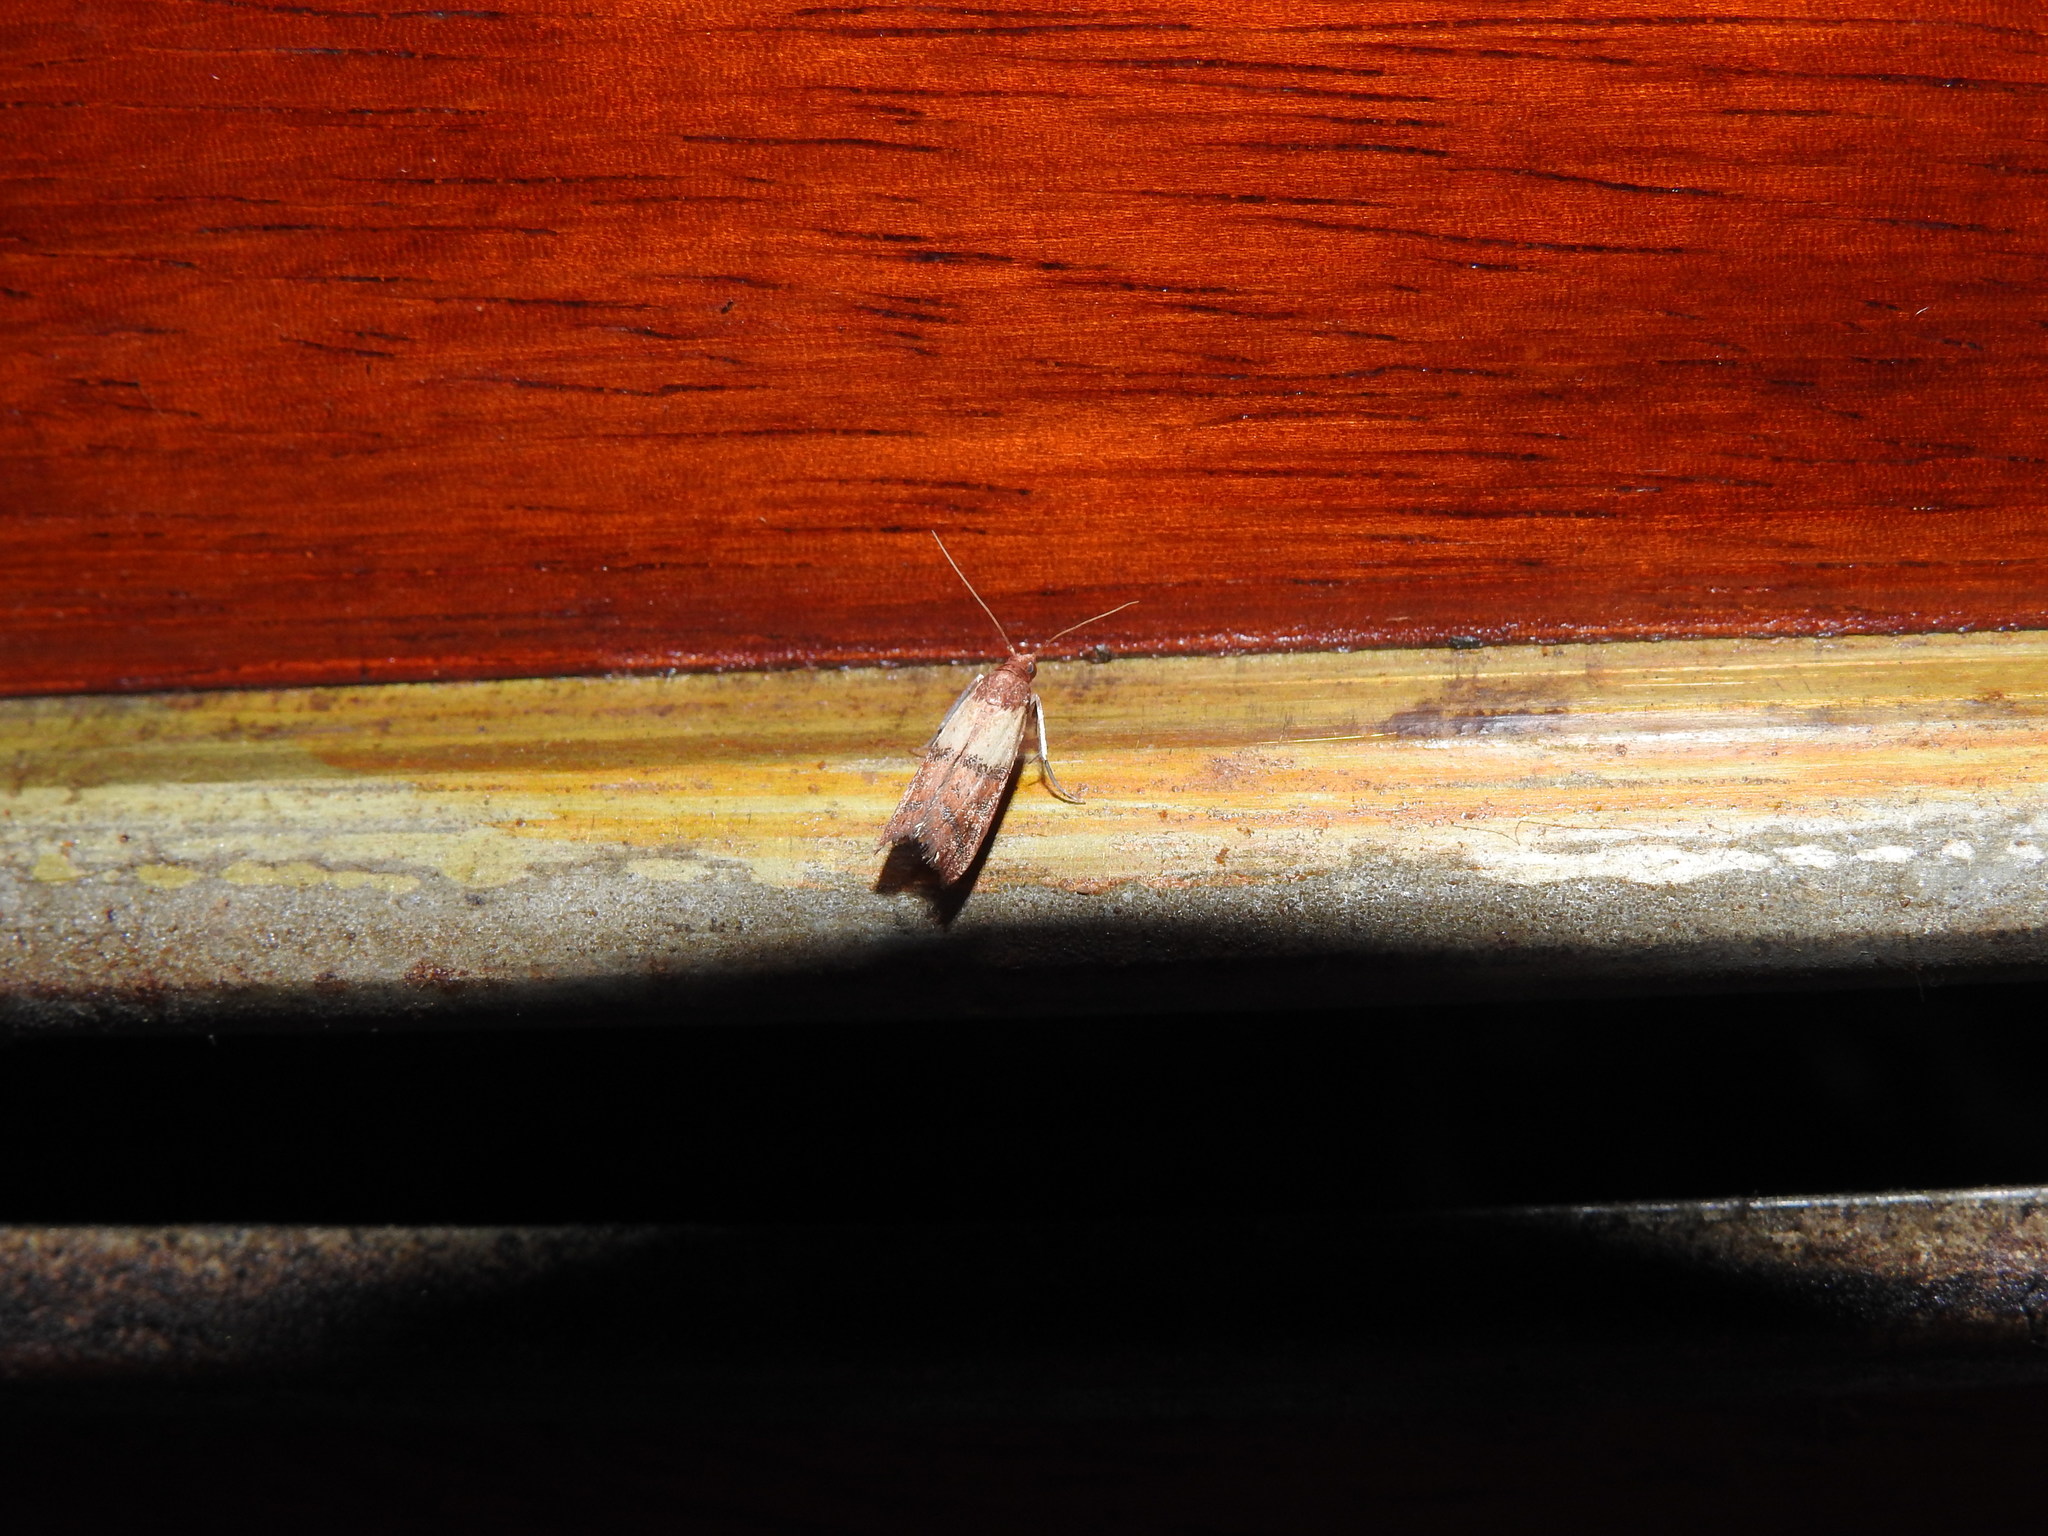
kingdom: Animalia
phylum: Arthropoda
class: Insecta
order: Lepidoptera
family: Pyralidae
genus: Plodia
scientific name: Plodia interpunctella
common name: Indian meal moth
